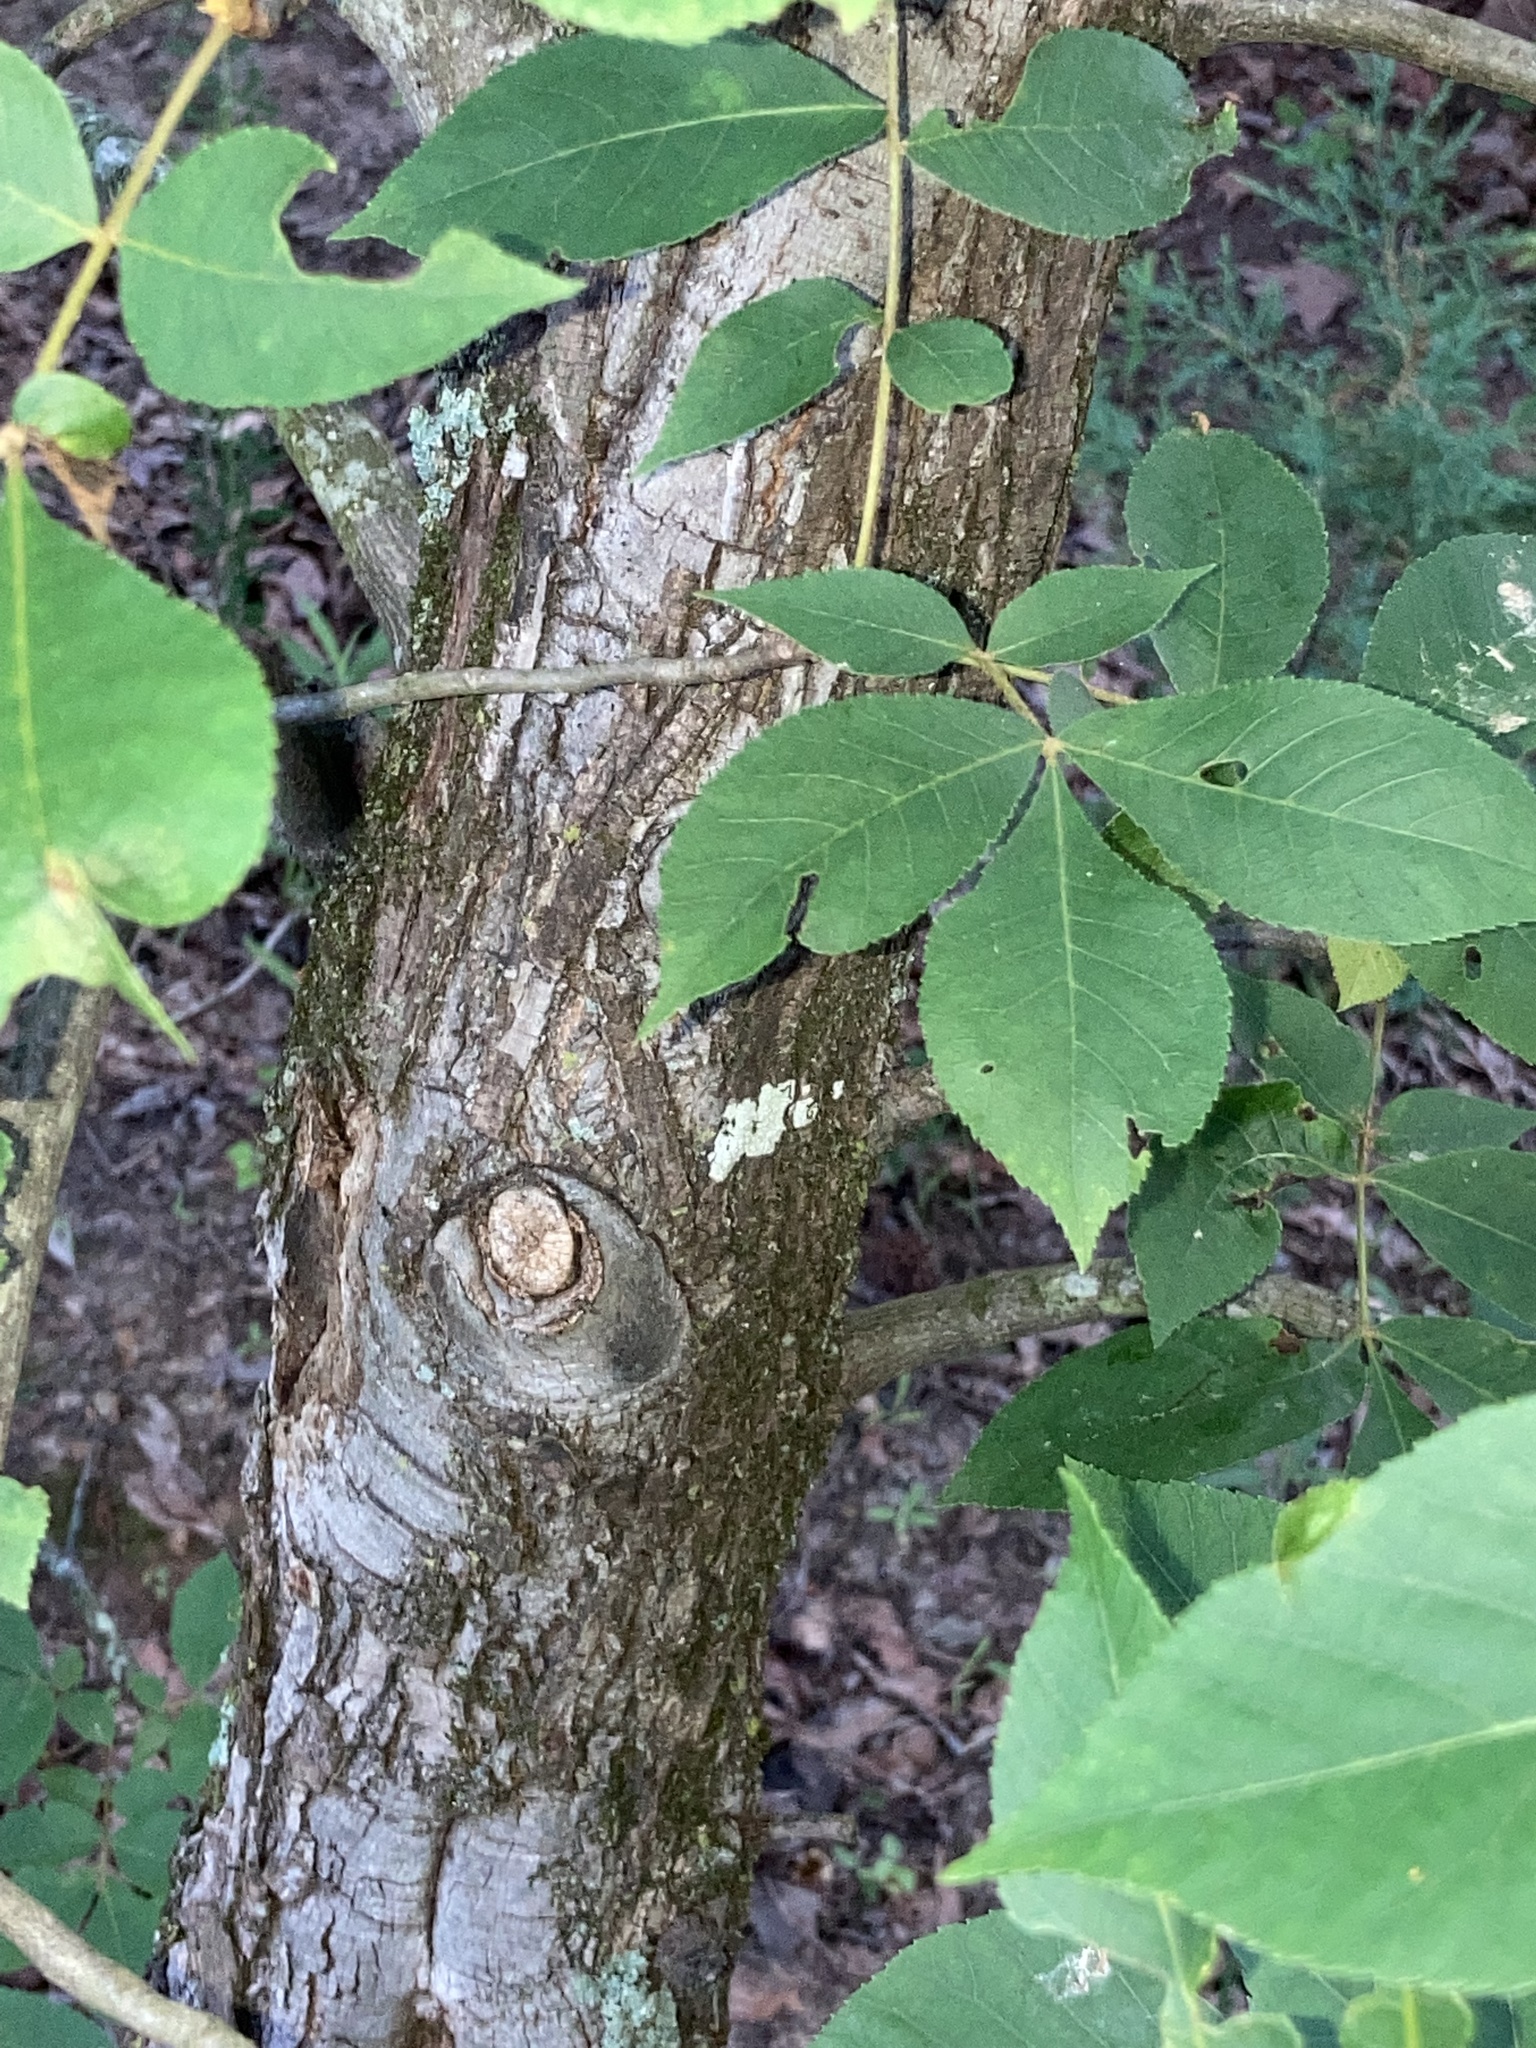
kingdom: Plantae
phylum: Tracheophyta
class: Magnoliopsida
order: Fagales
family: Juglandaceae
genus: Carya
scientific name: Carya texana
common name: Black hickory
